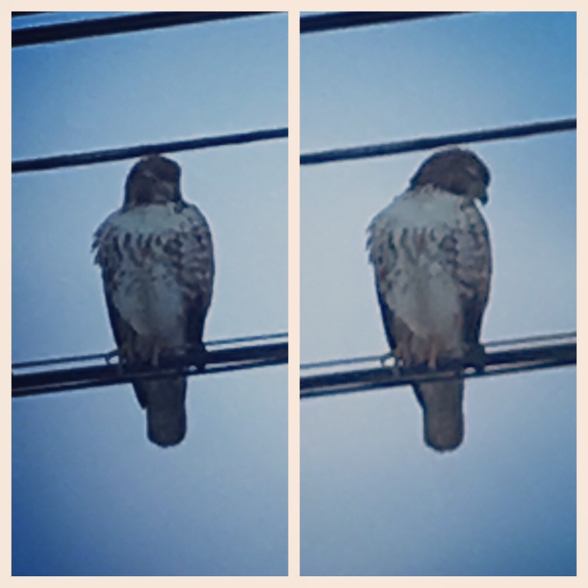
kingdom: Animalia
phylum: Chordata
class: Aves
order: Accipitriformes
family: Accipitridae
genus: Buteo
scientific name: Buteo jamaicensis
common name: Red-tailed hawk
